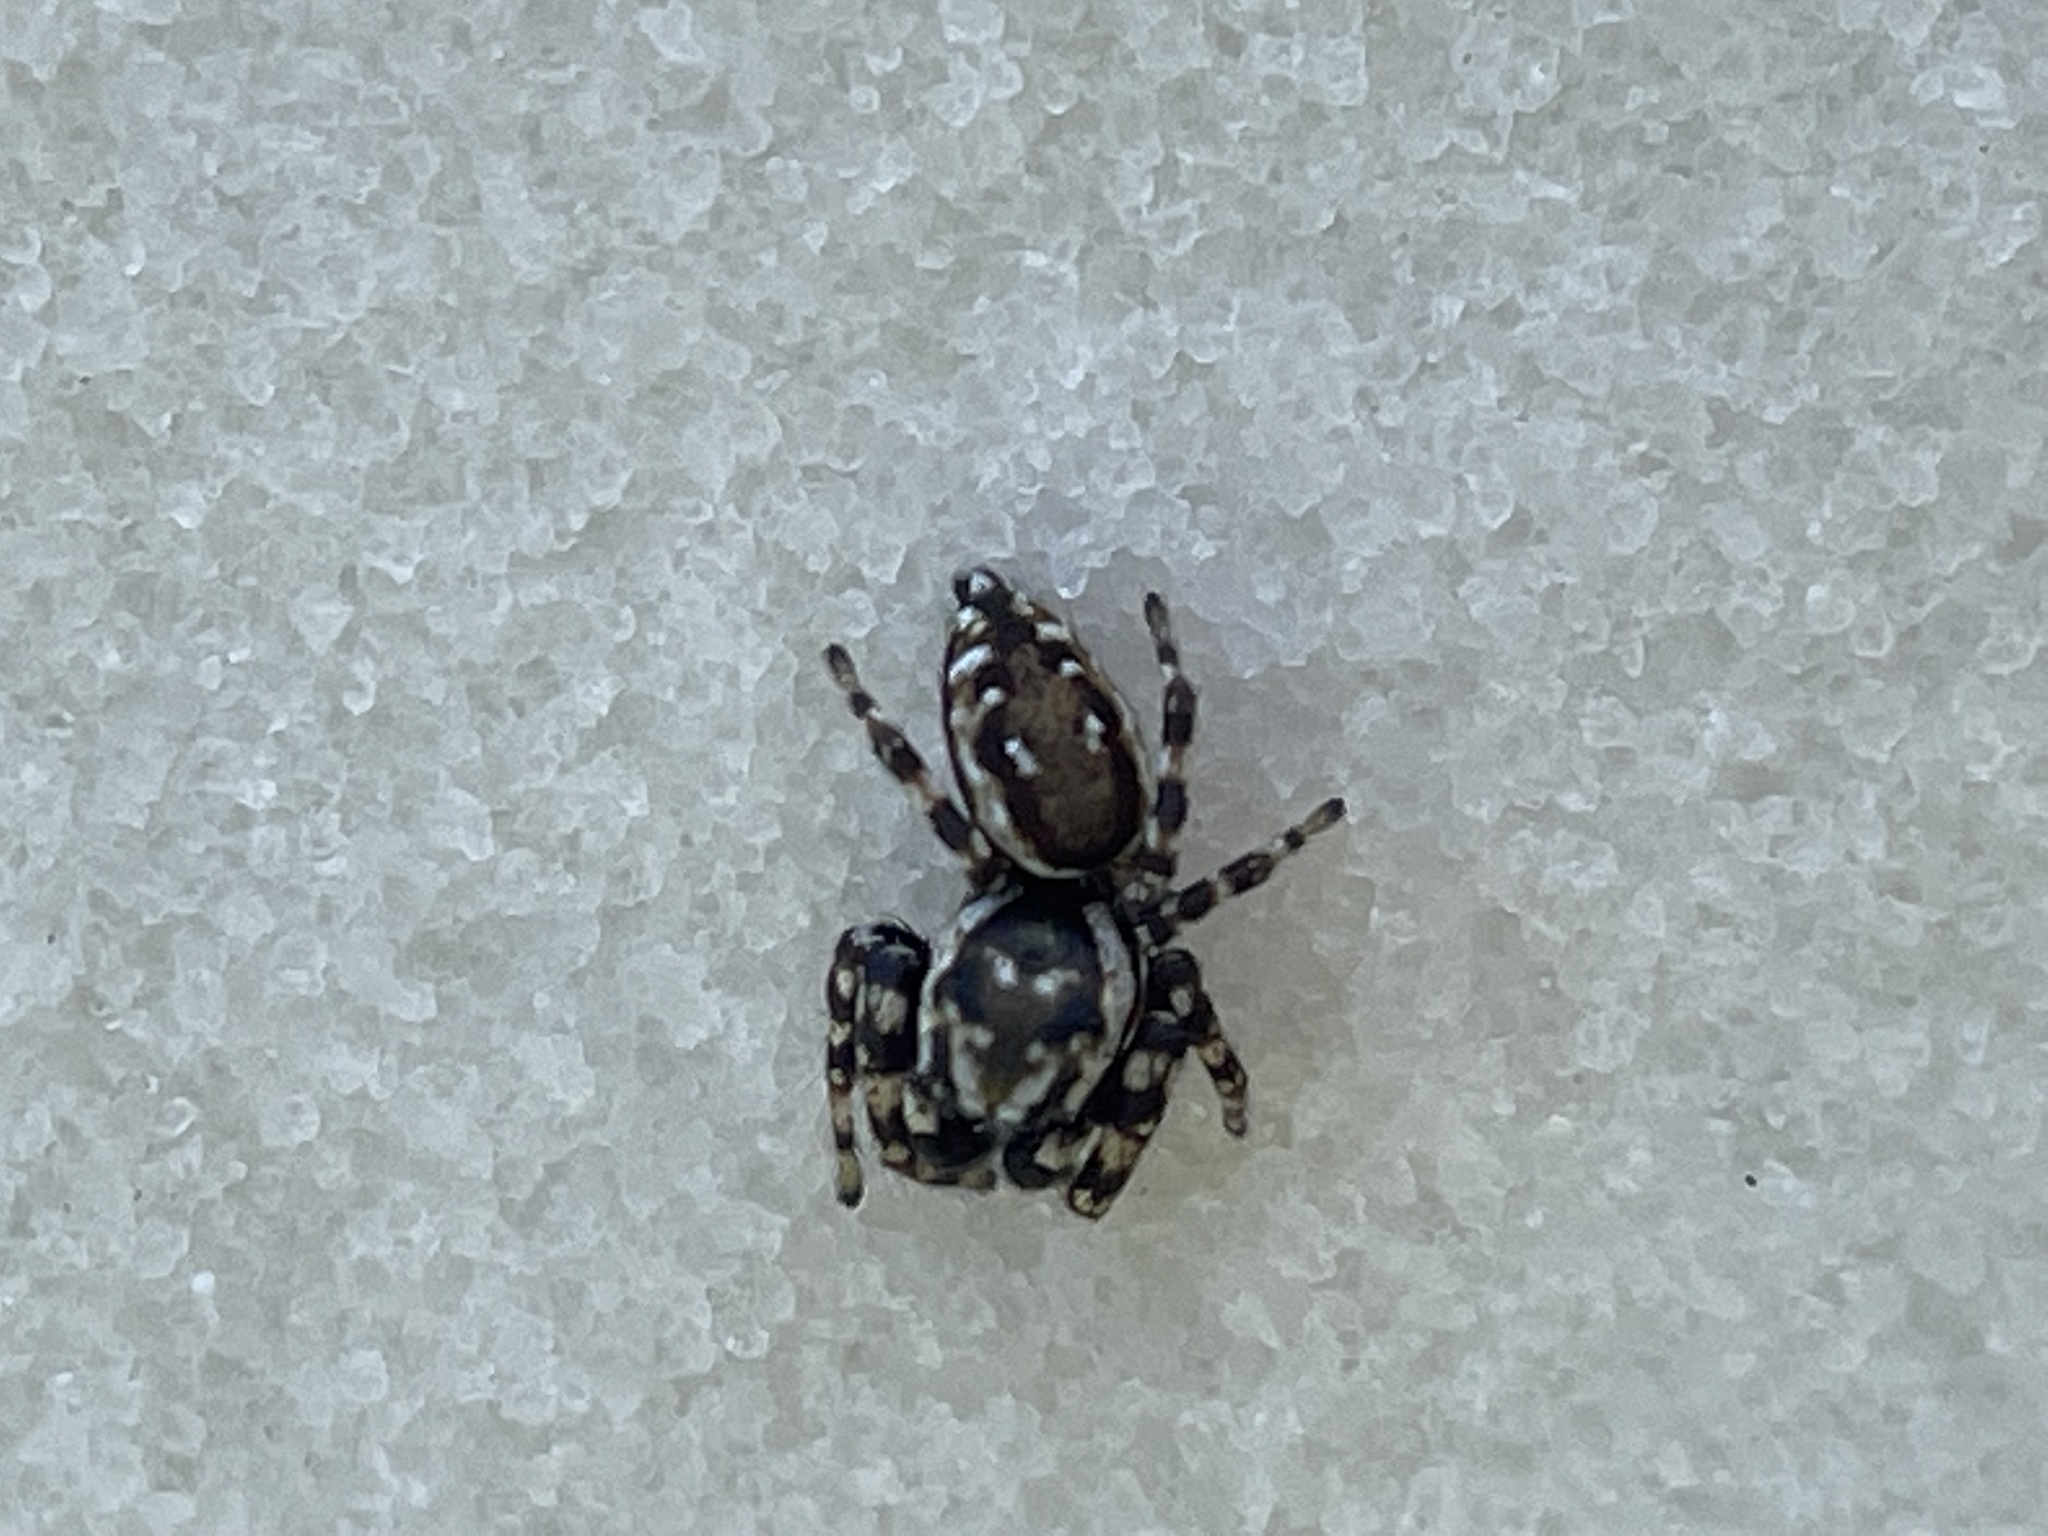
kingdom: Animalia
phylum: Arthropoda
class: Arachnida
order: Araneae
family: Salticidae
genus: Pelegrina
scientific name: Pelegrina galathea
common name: Jumping spiders
